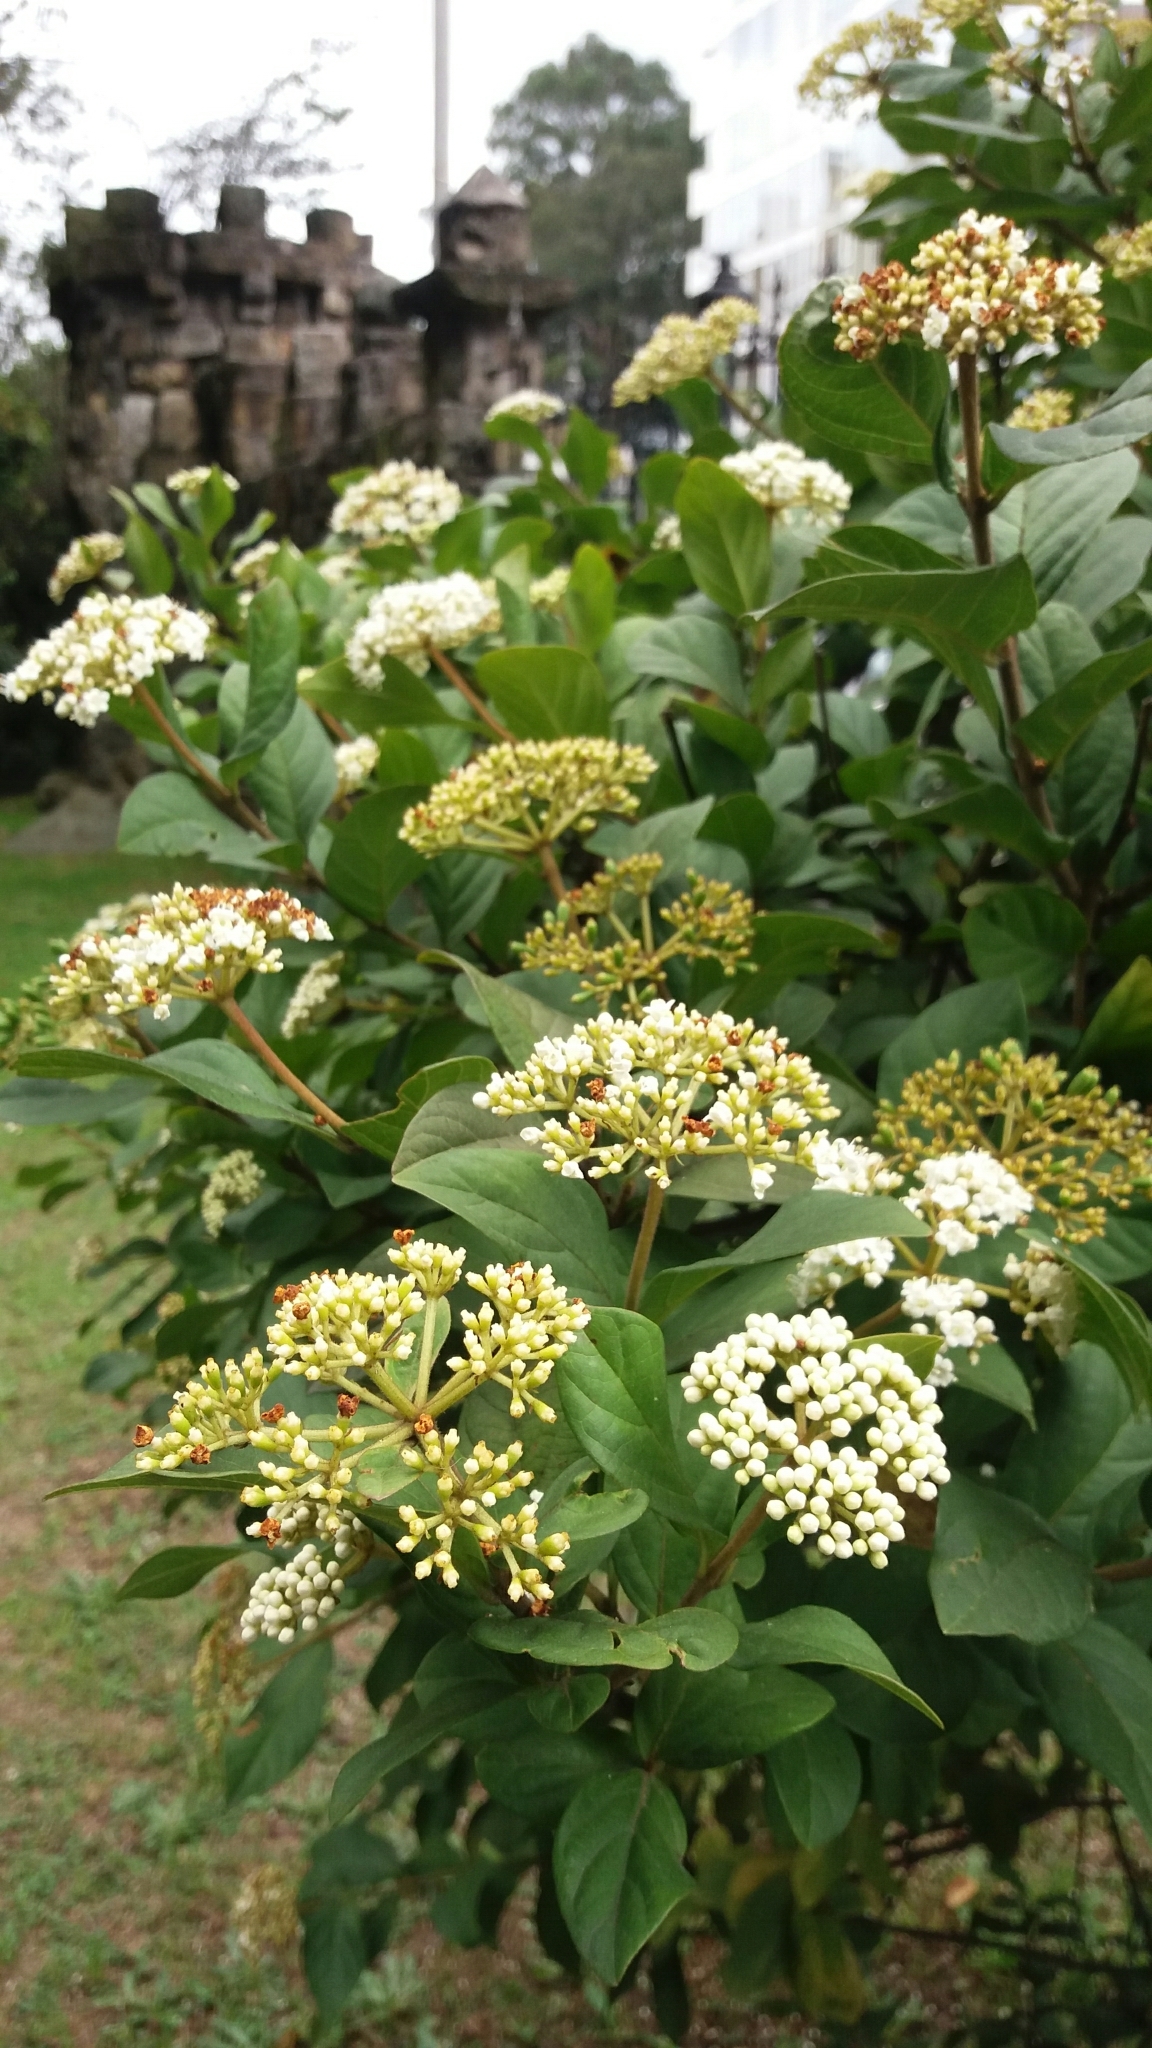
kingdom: Plantae
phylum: Tracheophyta
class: Magnoliopsida
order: Dipsacales
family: Viburnaceae
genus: Viburnum
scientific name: Viburnum triphyllum
